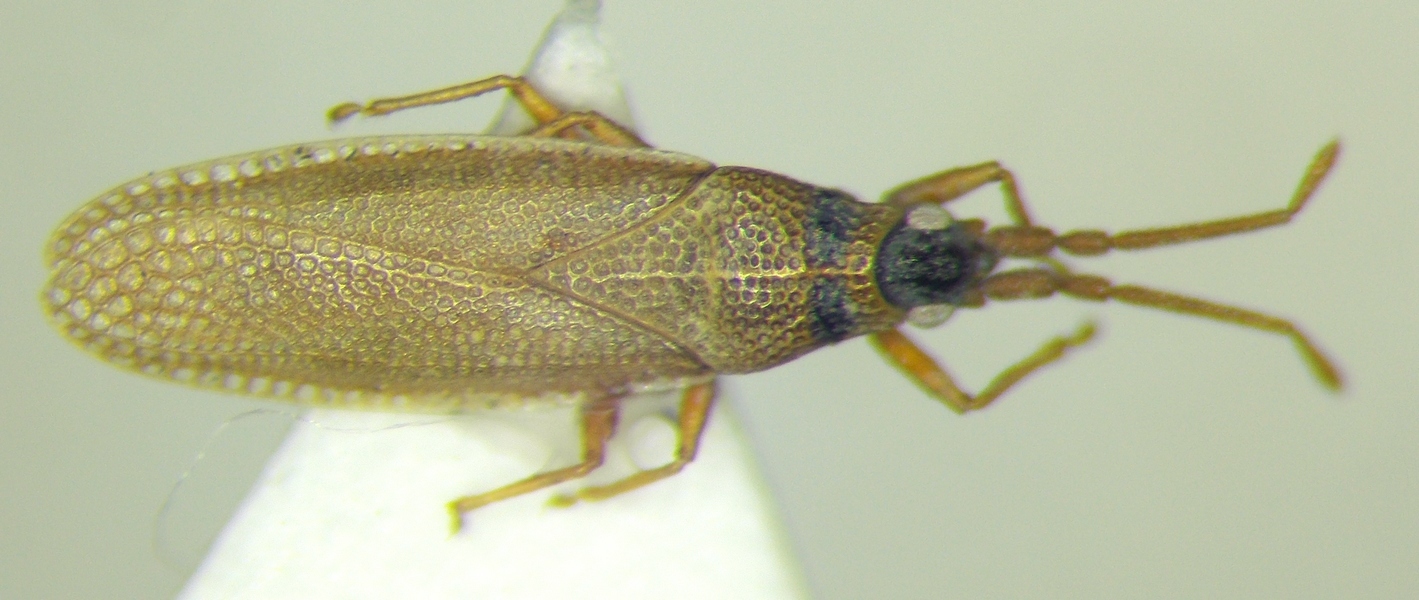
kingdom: Animalia
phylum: Arthropoda
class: Insecta
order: Hemiptera
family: Tingidae
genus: Agramma
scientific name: Agramma atricapillum
